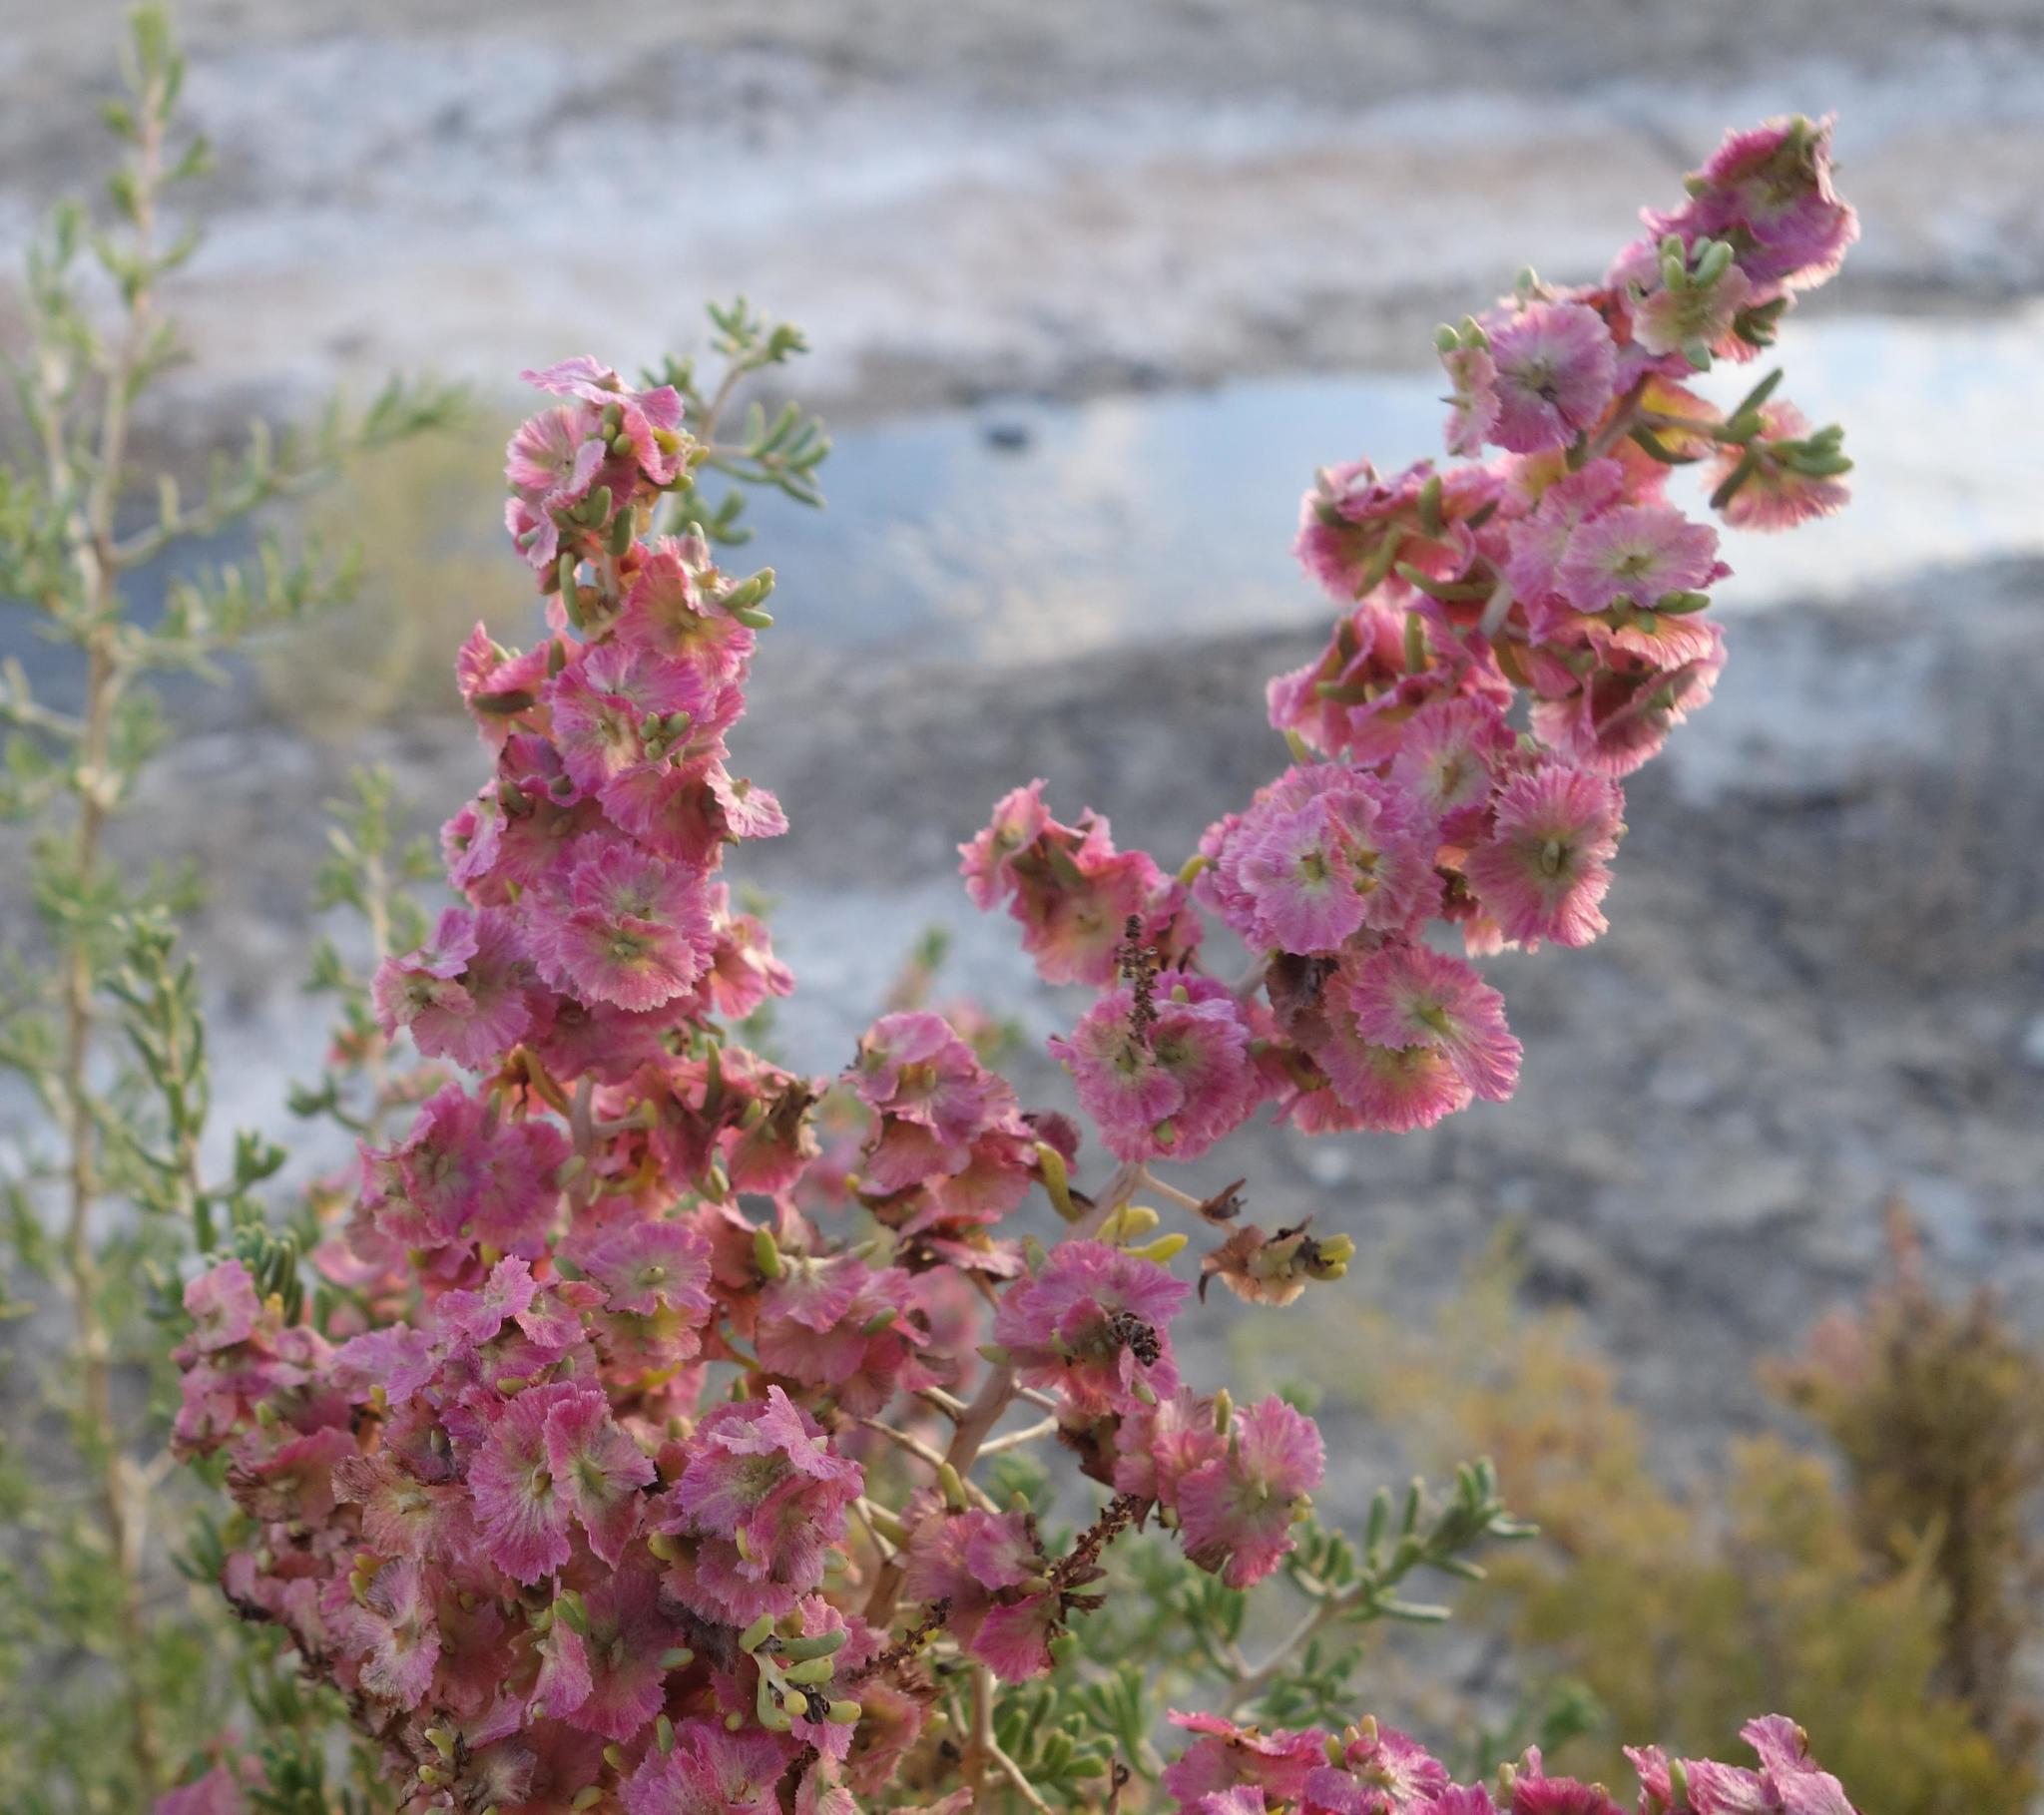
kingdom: Plantae
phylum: Tracheophyta
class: Magnoliopsida
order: Caryophyllales
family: Amaranthaceae
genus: Halogeton
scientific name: Halogeton glomeratus
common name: Saltlover
